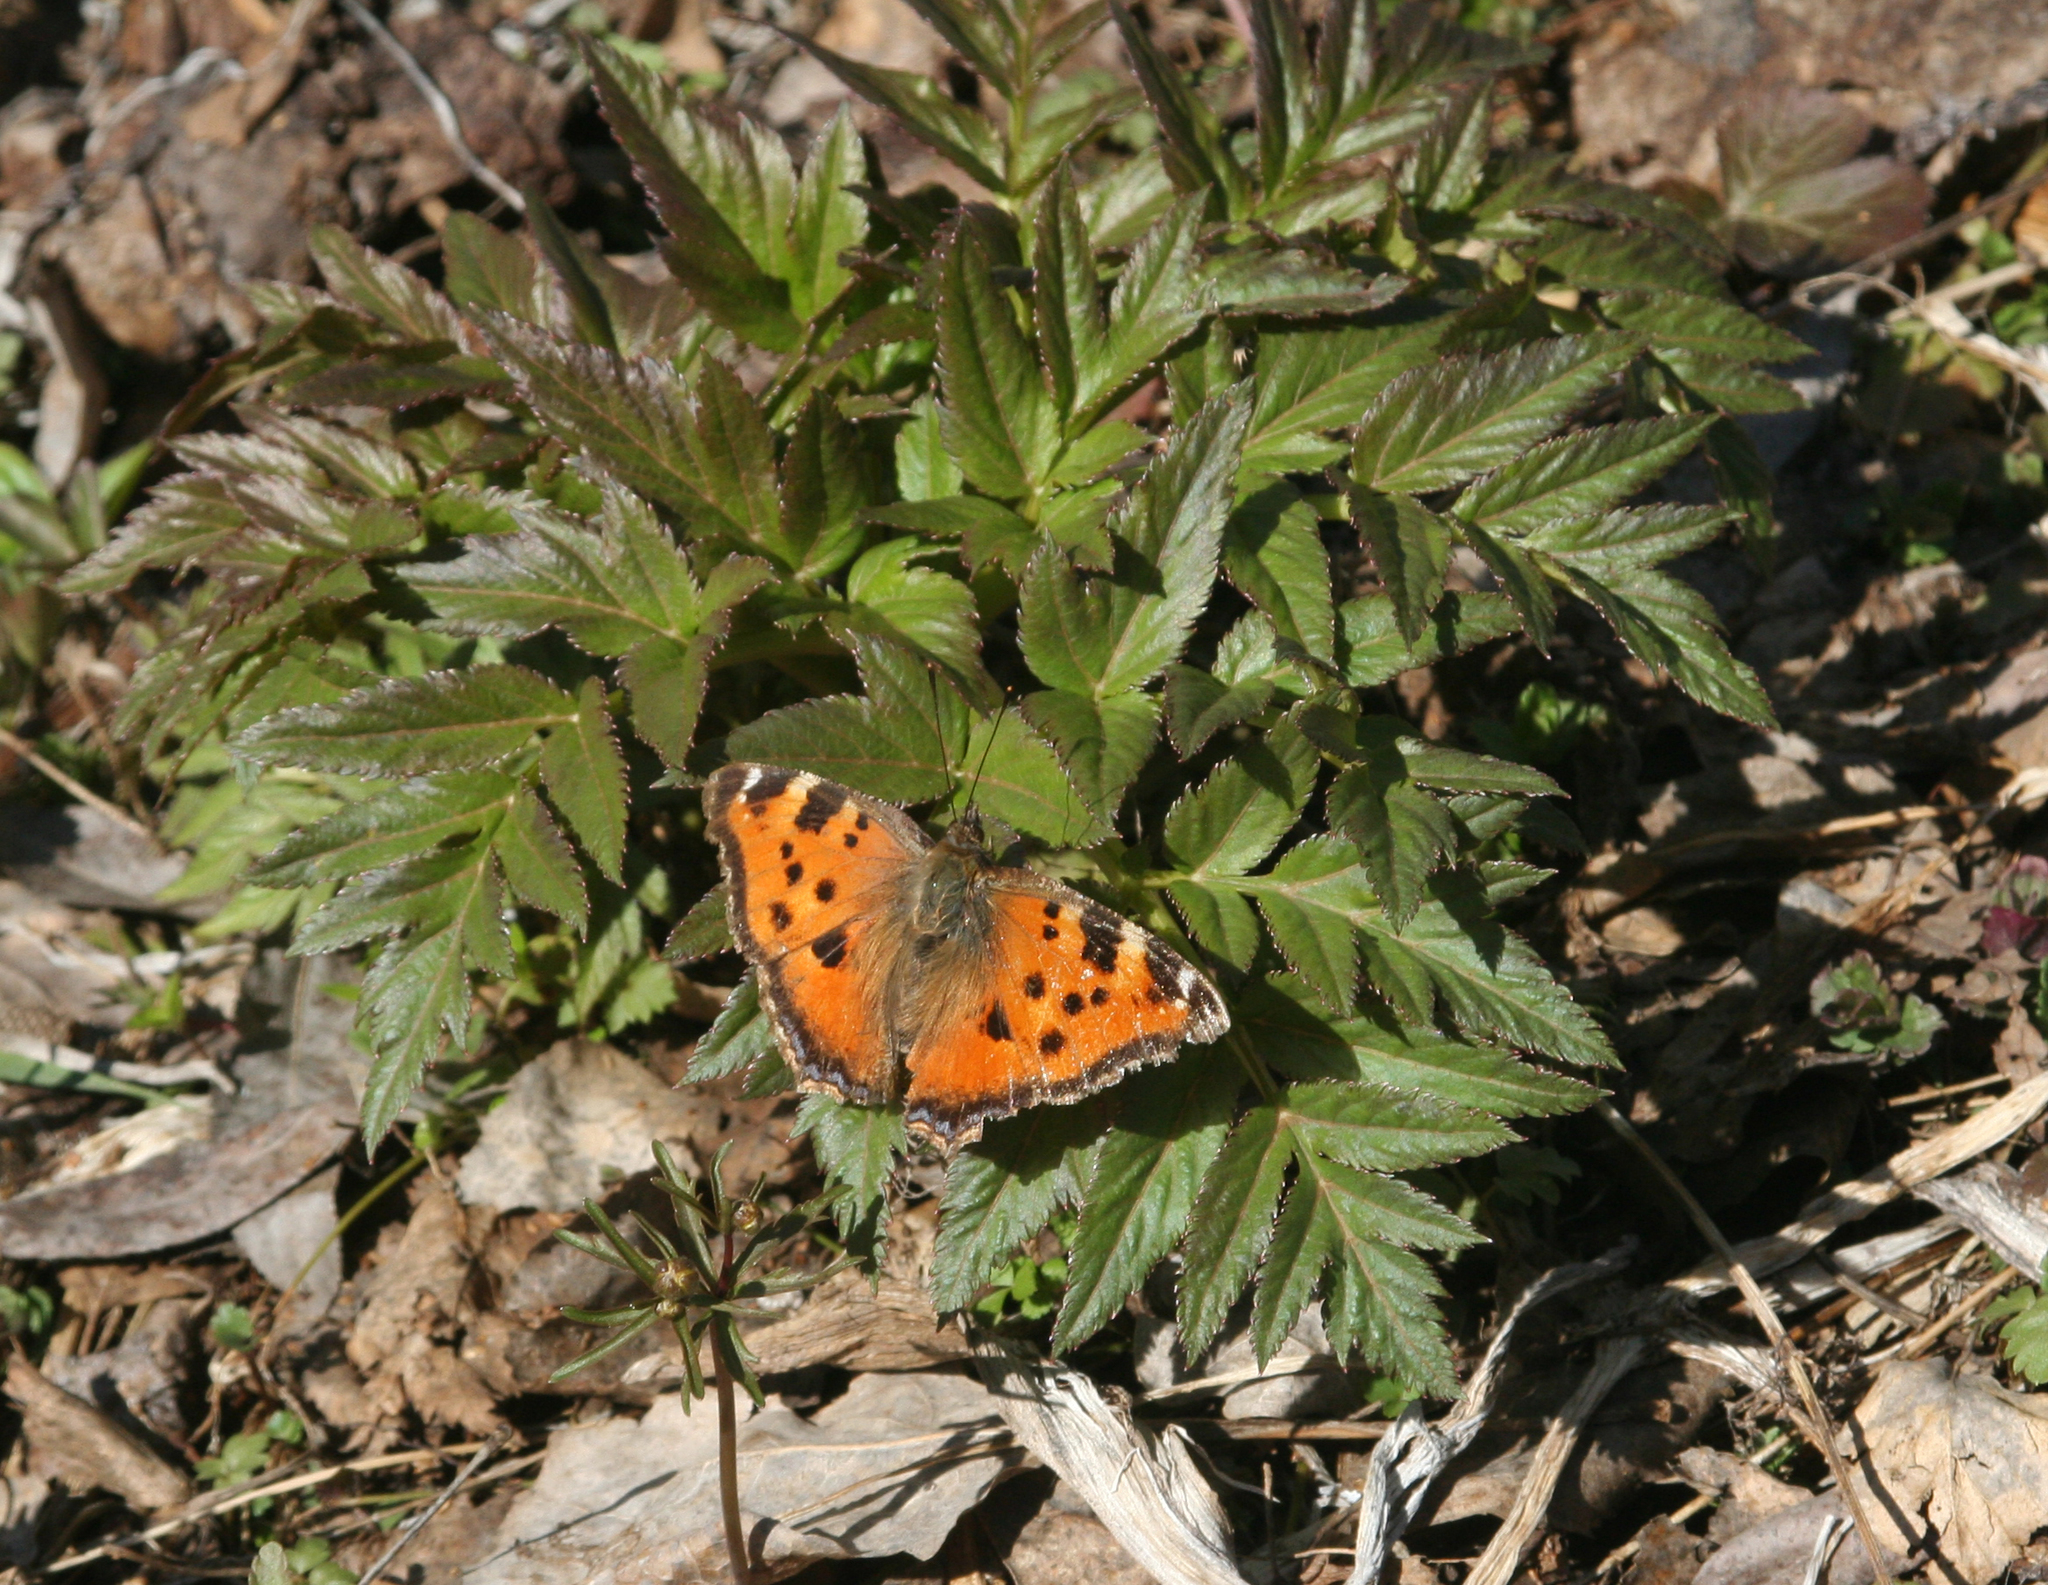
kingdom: Plantae
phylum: Tracheophyta
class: Magnoliopsida
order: Apiales
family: Apiaceae
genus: Angelica
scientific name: Angelica decurrens
